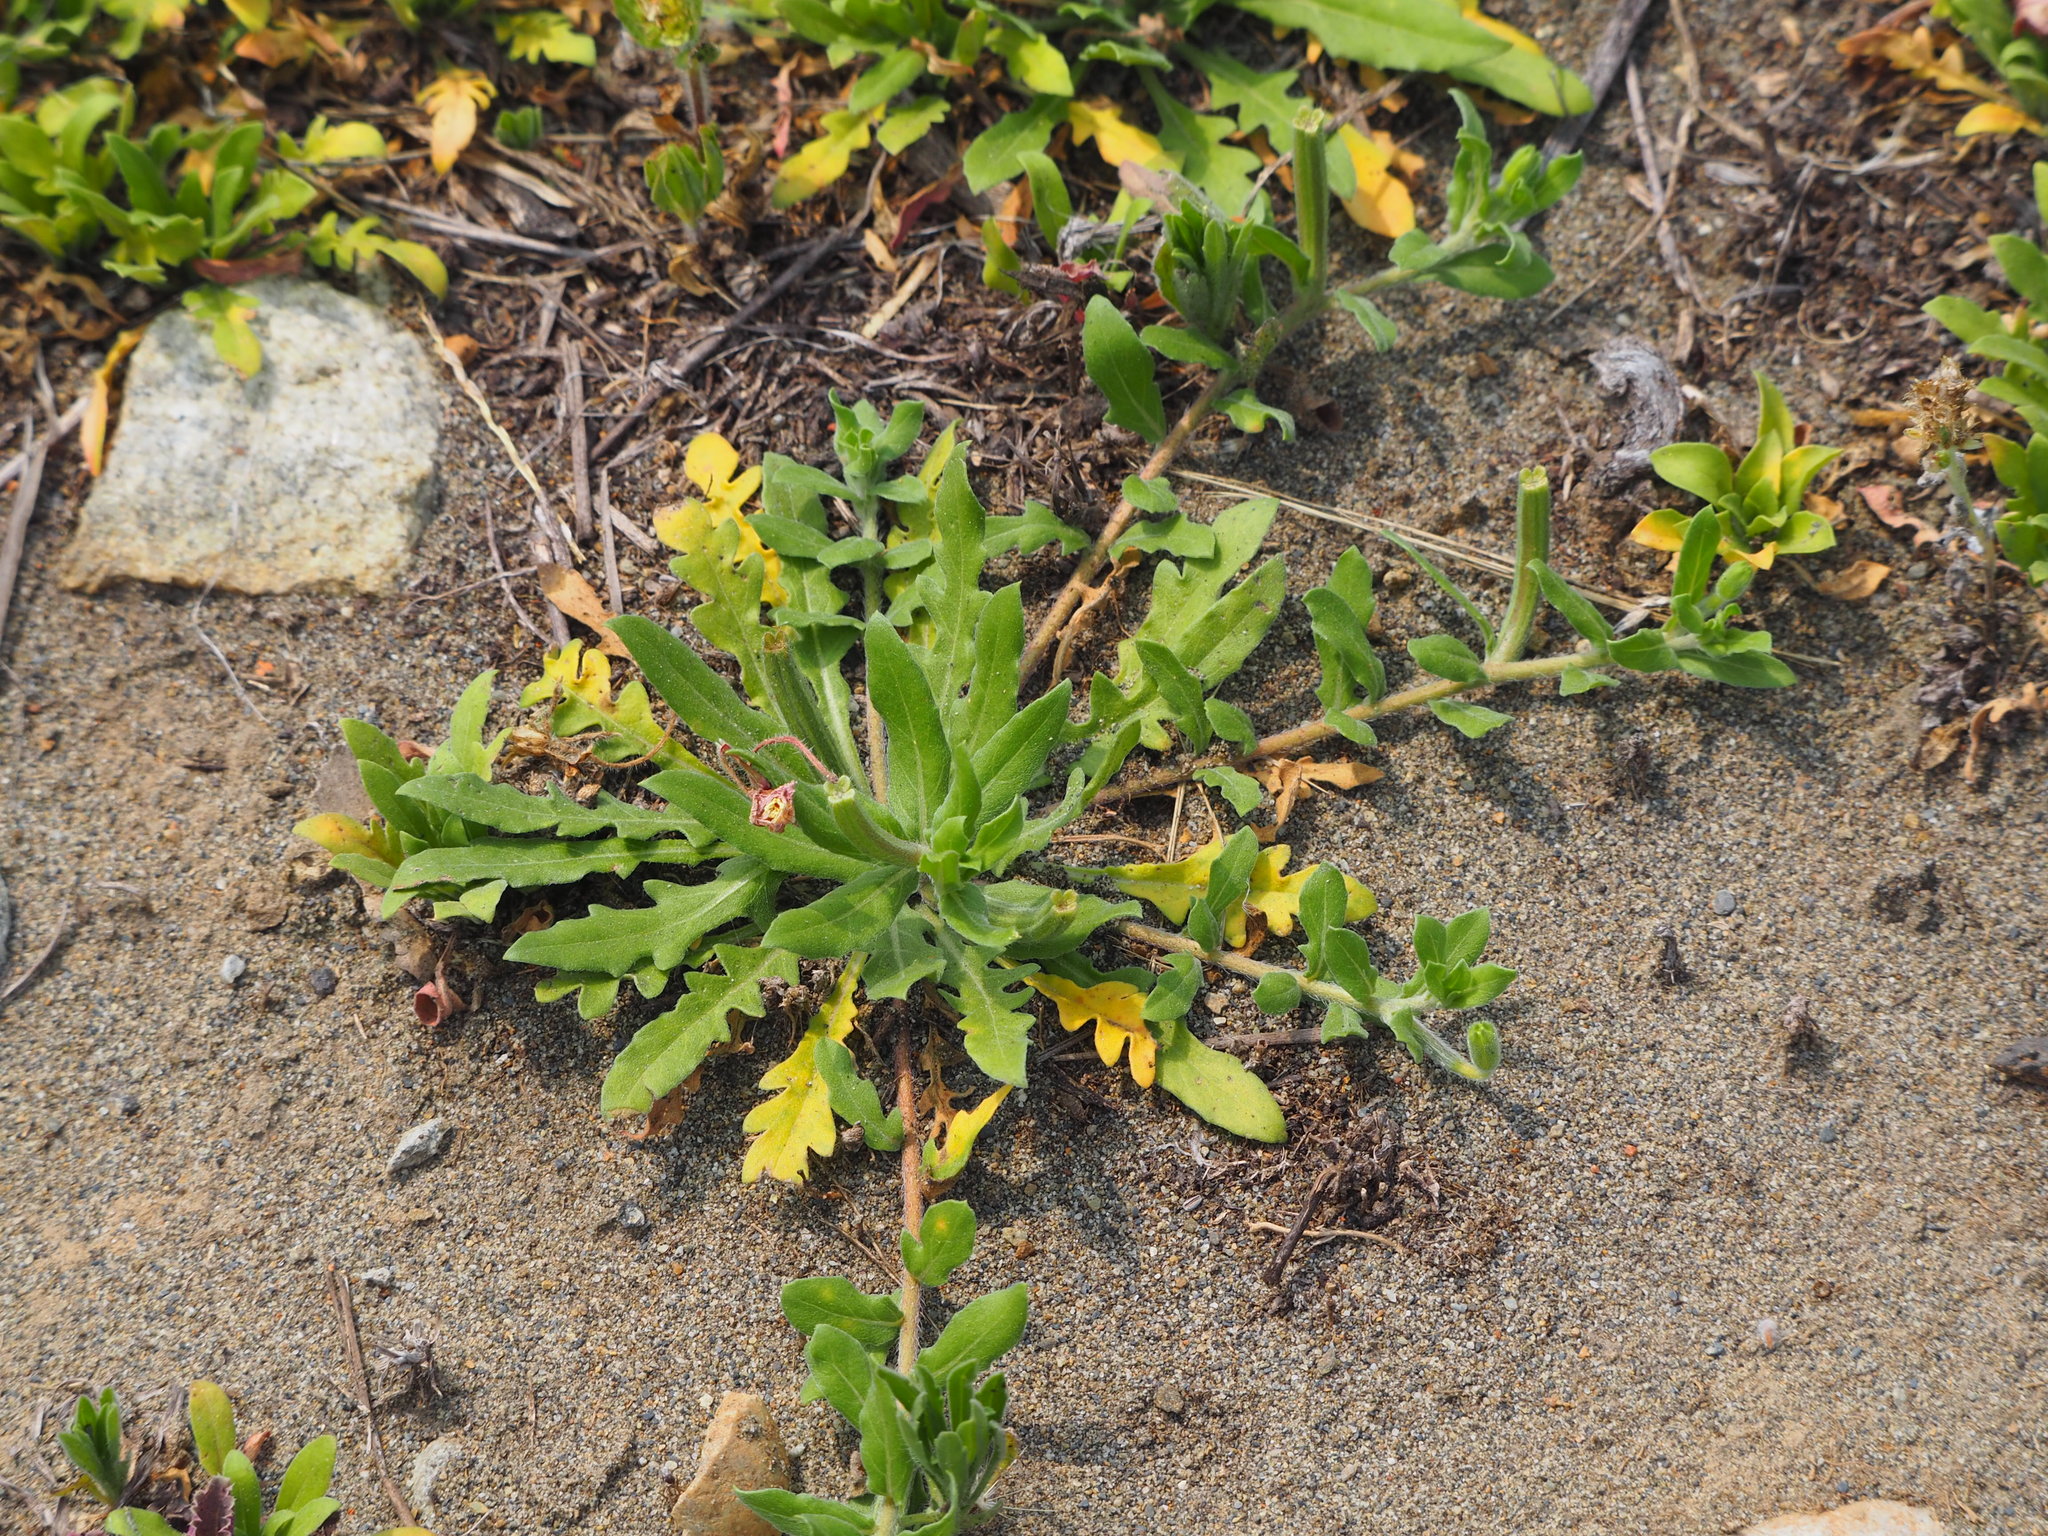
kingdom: Plantae
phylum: Tracheophyta
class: Magnoliopsida
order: Myrtales
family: Onagraceae
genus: Oenothera
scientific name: Oenothera laciniata
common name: Cut-leaved evening-primrose
